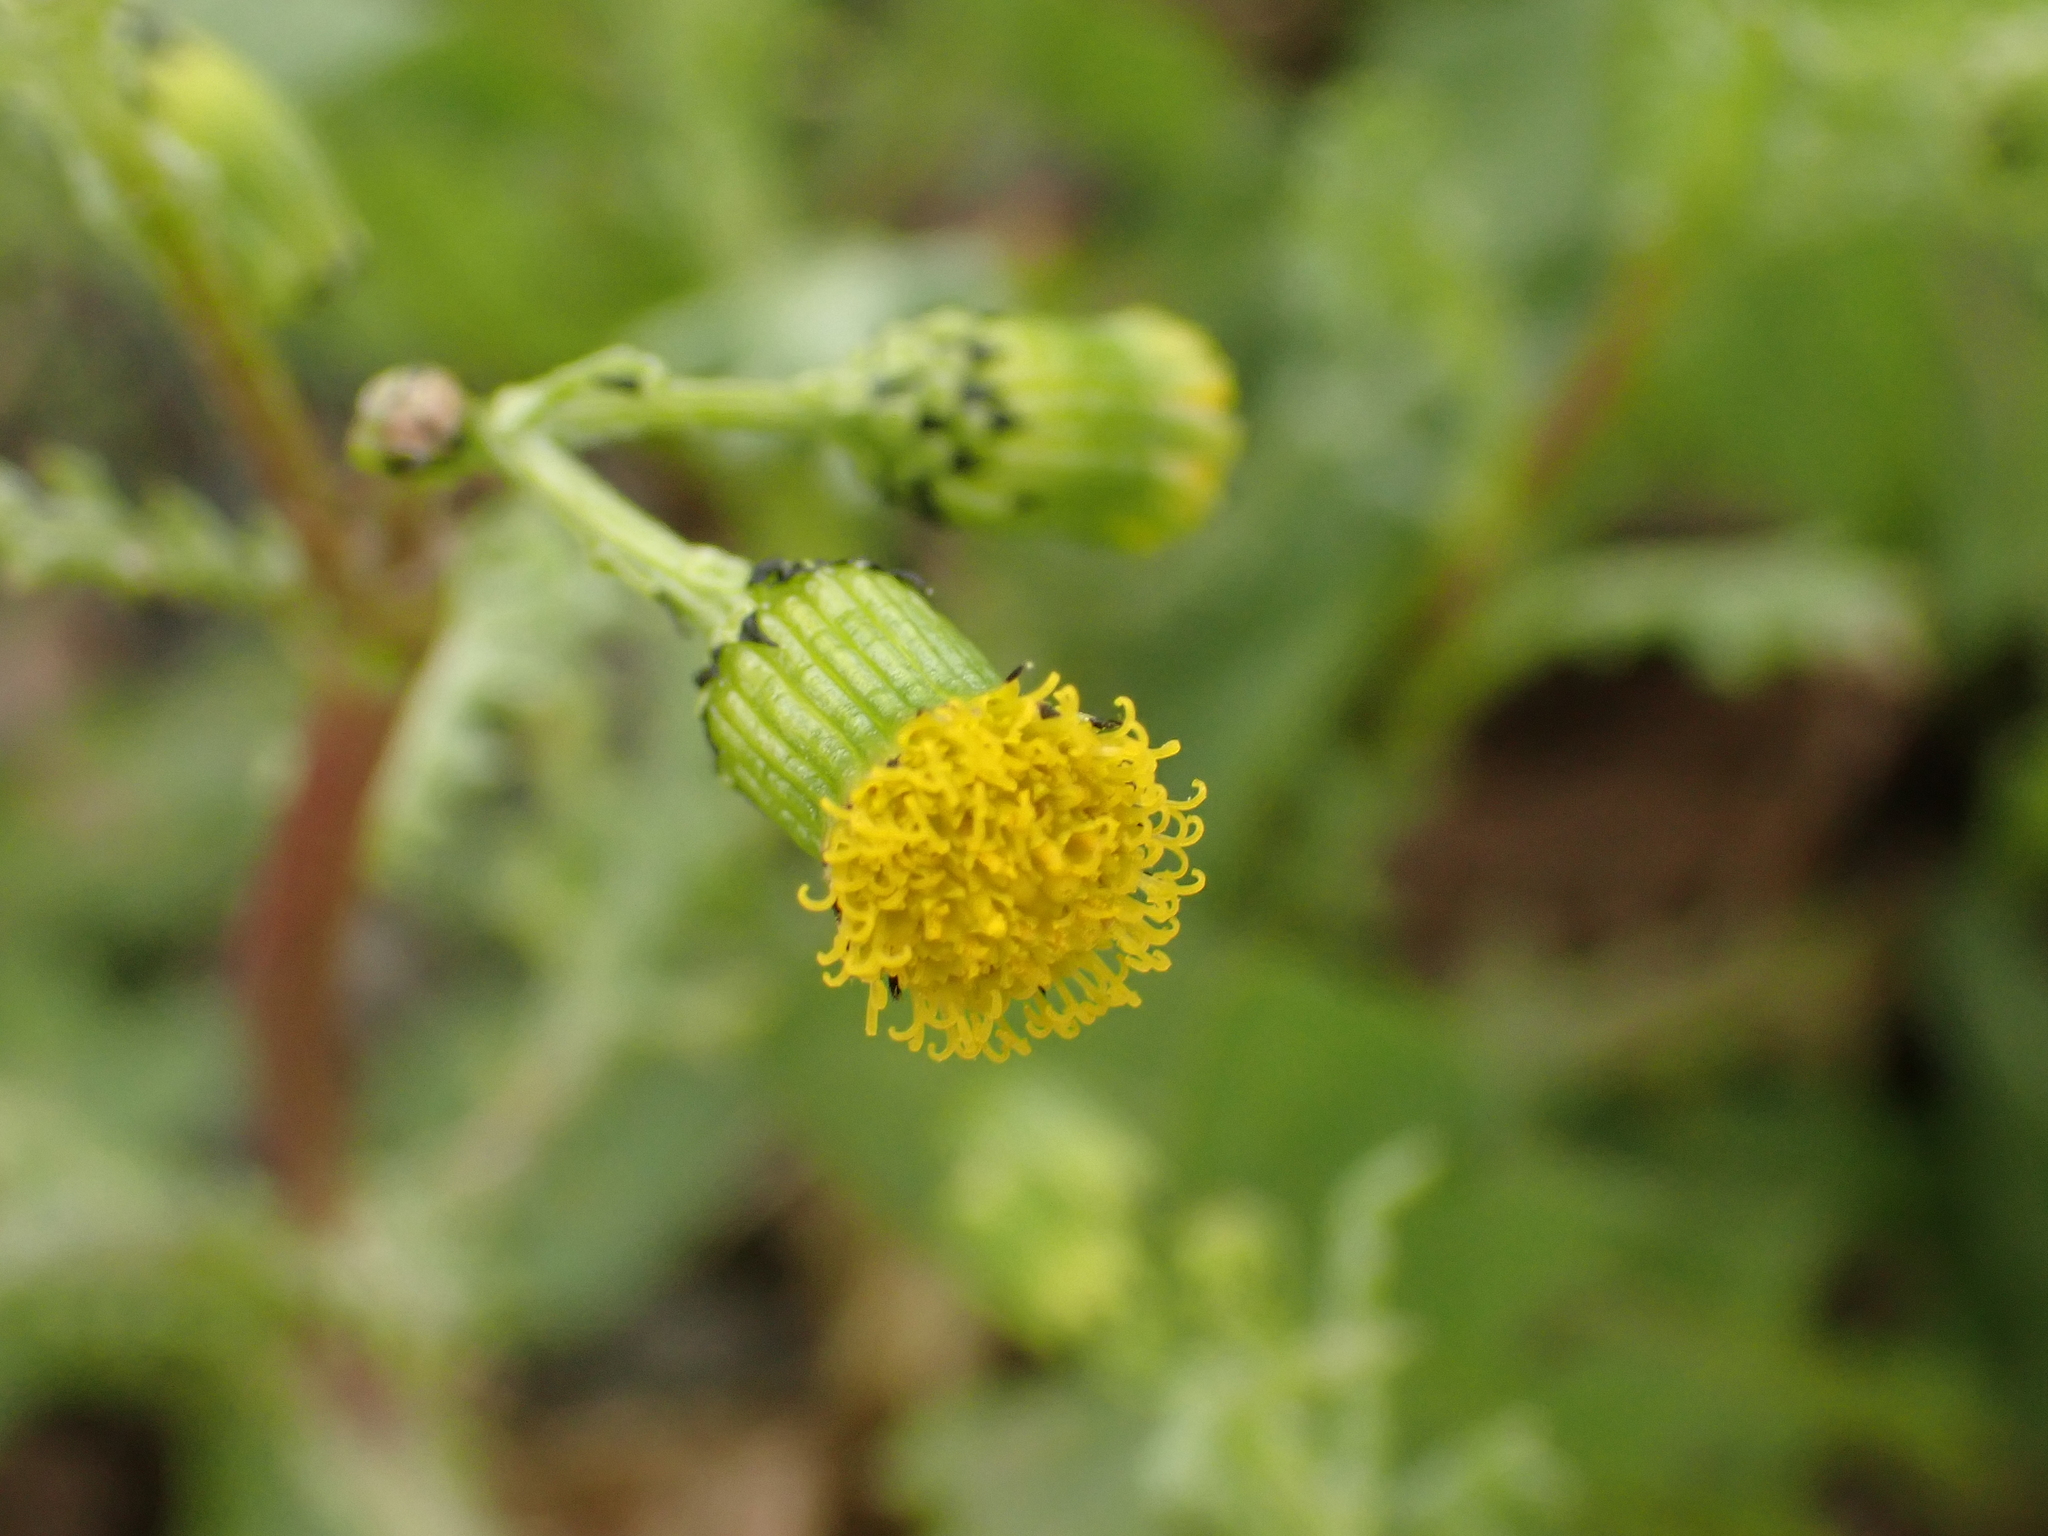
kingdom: Plantae
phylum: Tracheophyta
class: Magnoliopsida
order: Asterales
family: Asteraceae
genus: Senecio
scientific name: Senecio vulgaris
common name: Old-man-in-the-spring
